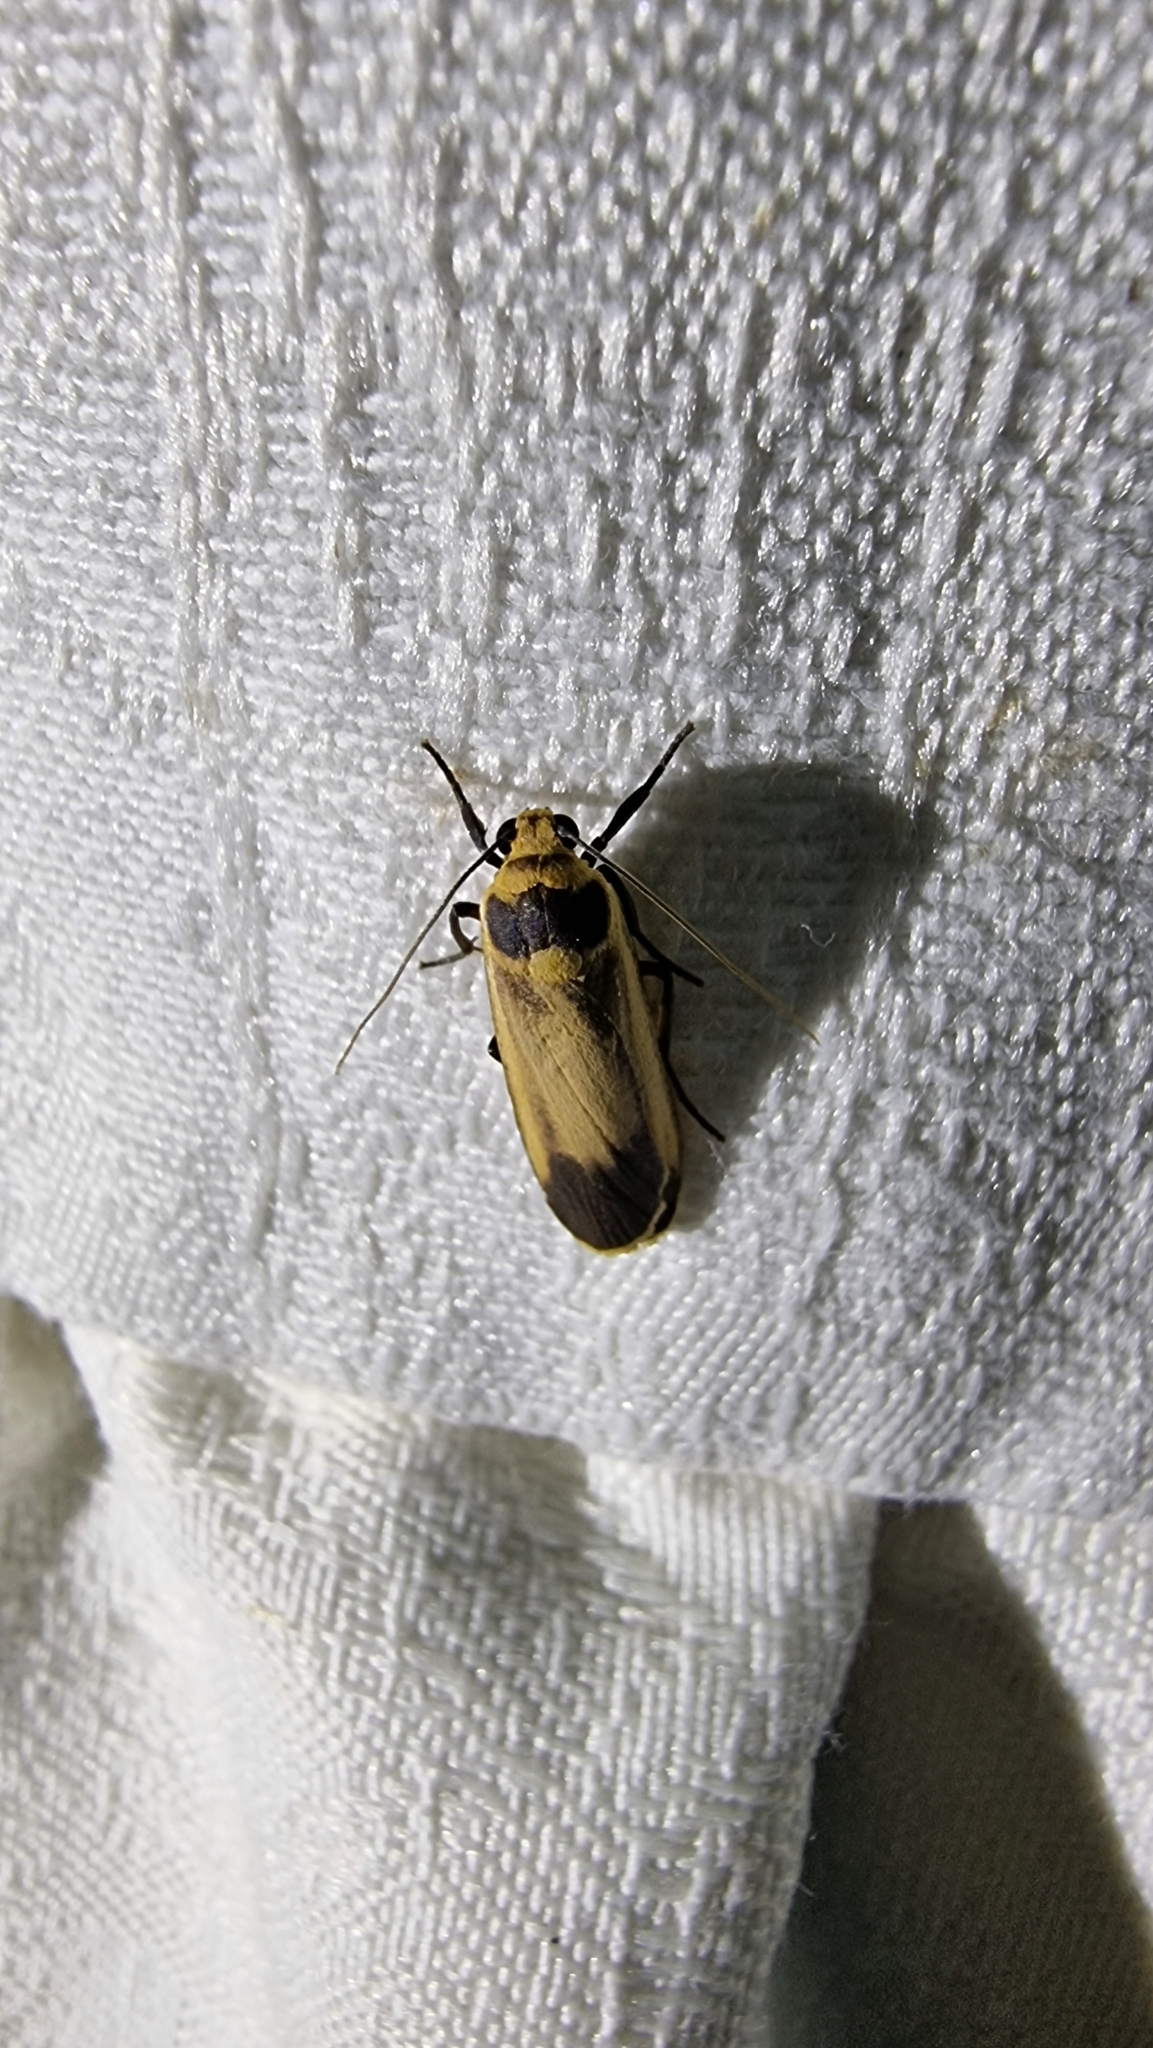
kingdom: Animalia
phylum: Arthropoda
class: Insecta
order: Lepidoptera
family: Erebidae
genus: Brunia
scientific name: Brunia replana
